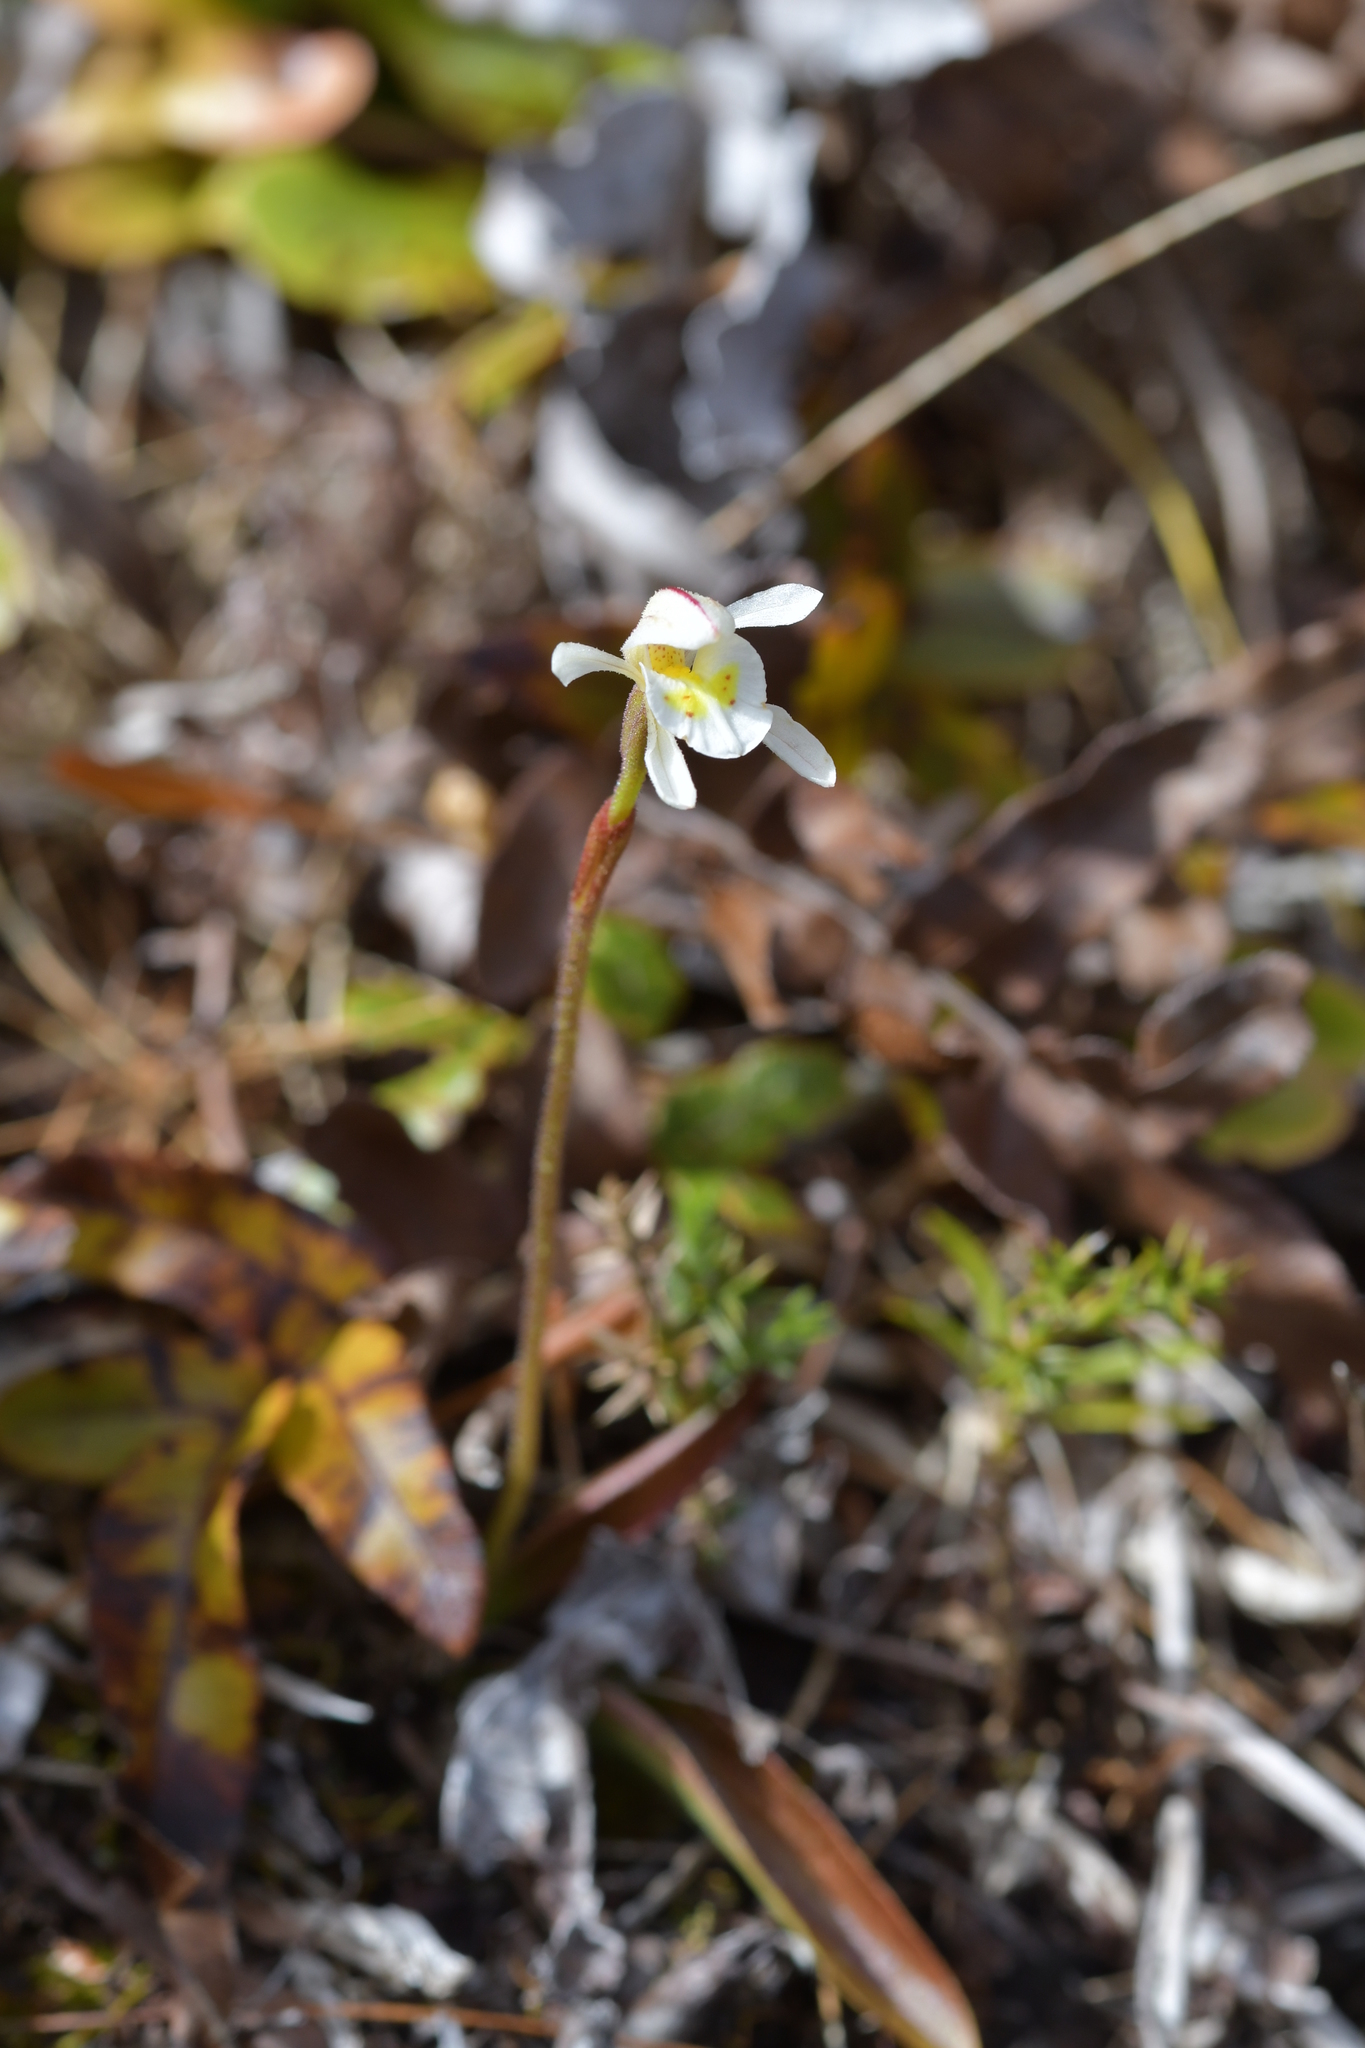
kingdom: Plantae
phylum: Tracheophyta
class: Liliopsida
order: Asparagales
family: Orchidaceae
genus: Aporostylis
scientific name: Aporostylis bifolia
